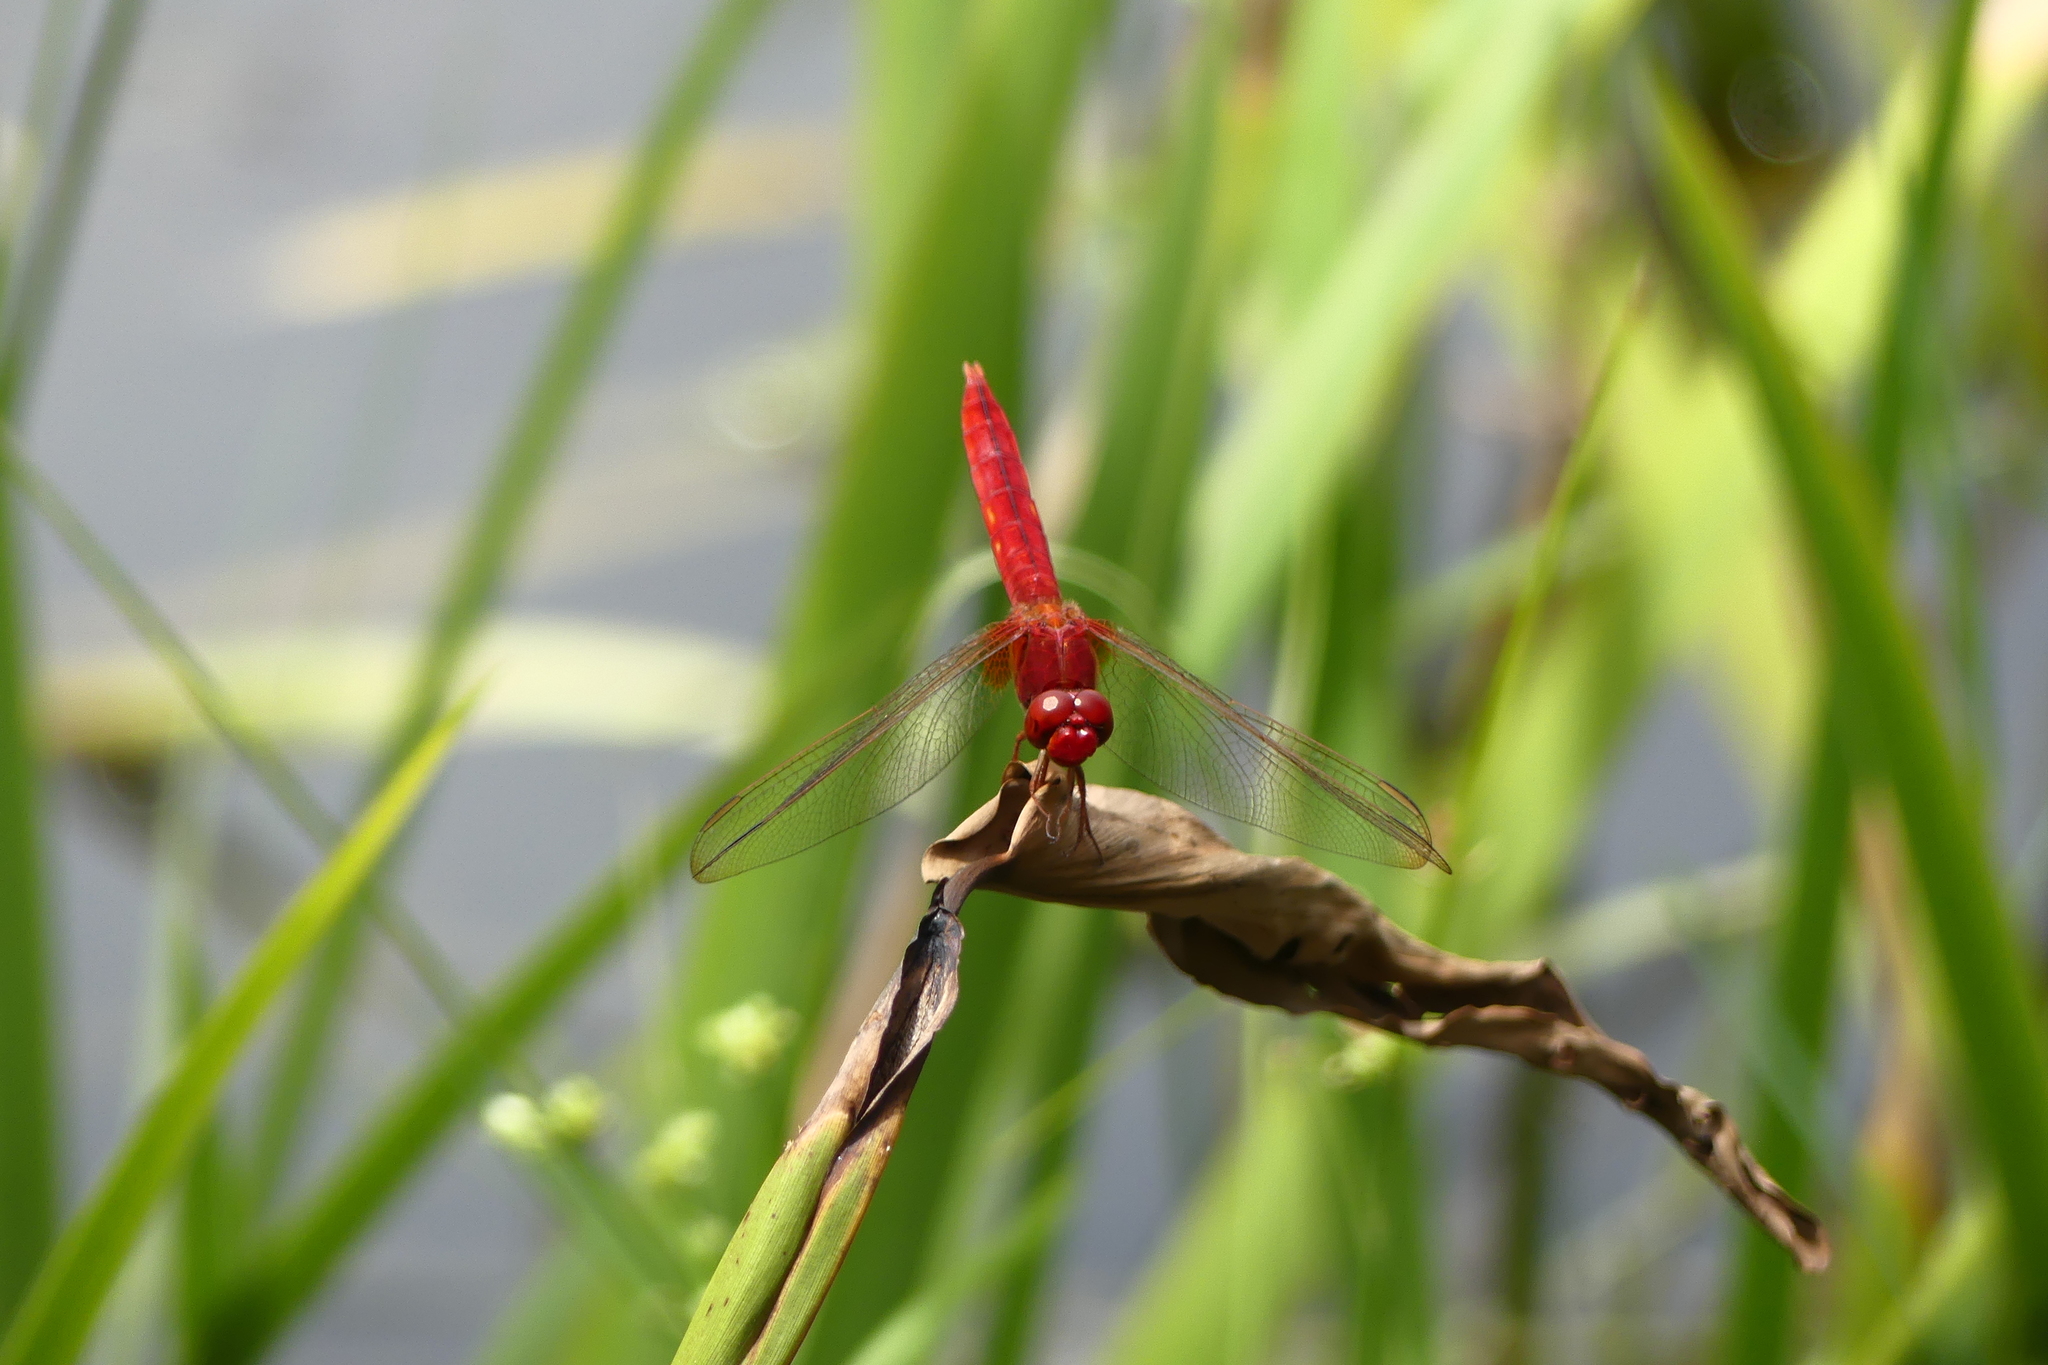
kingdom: Animalia
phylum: Arthropoda
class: Insecta
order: Odonata
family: Libellulidae
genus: Crocothemis
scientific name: Crocothemis servilia
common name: Scarlet skimmer
